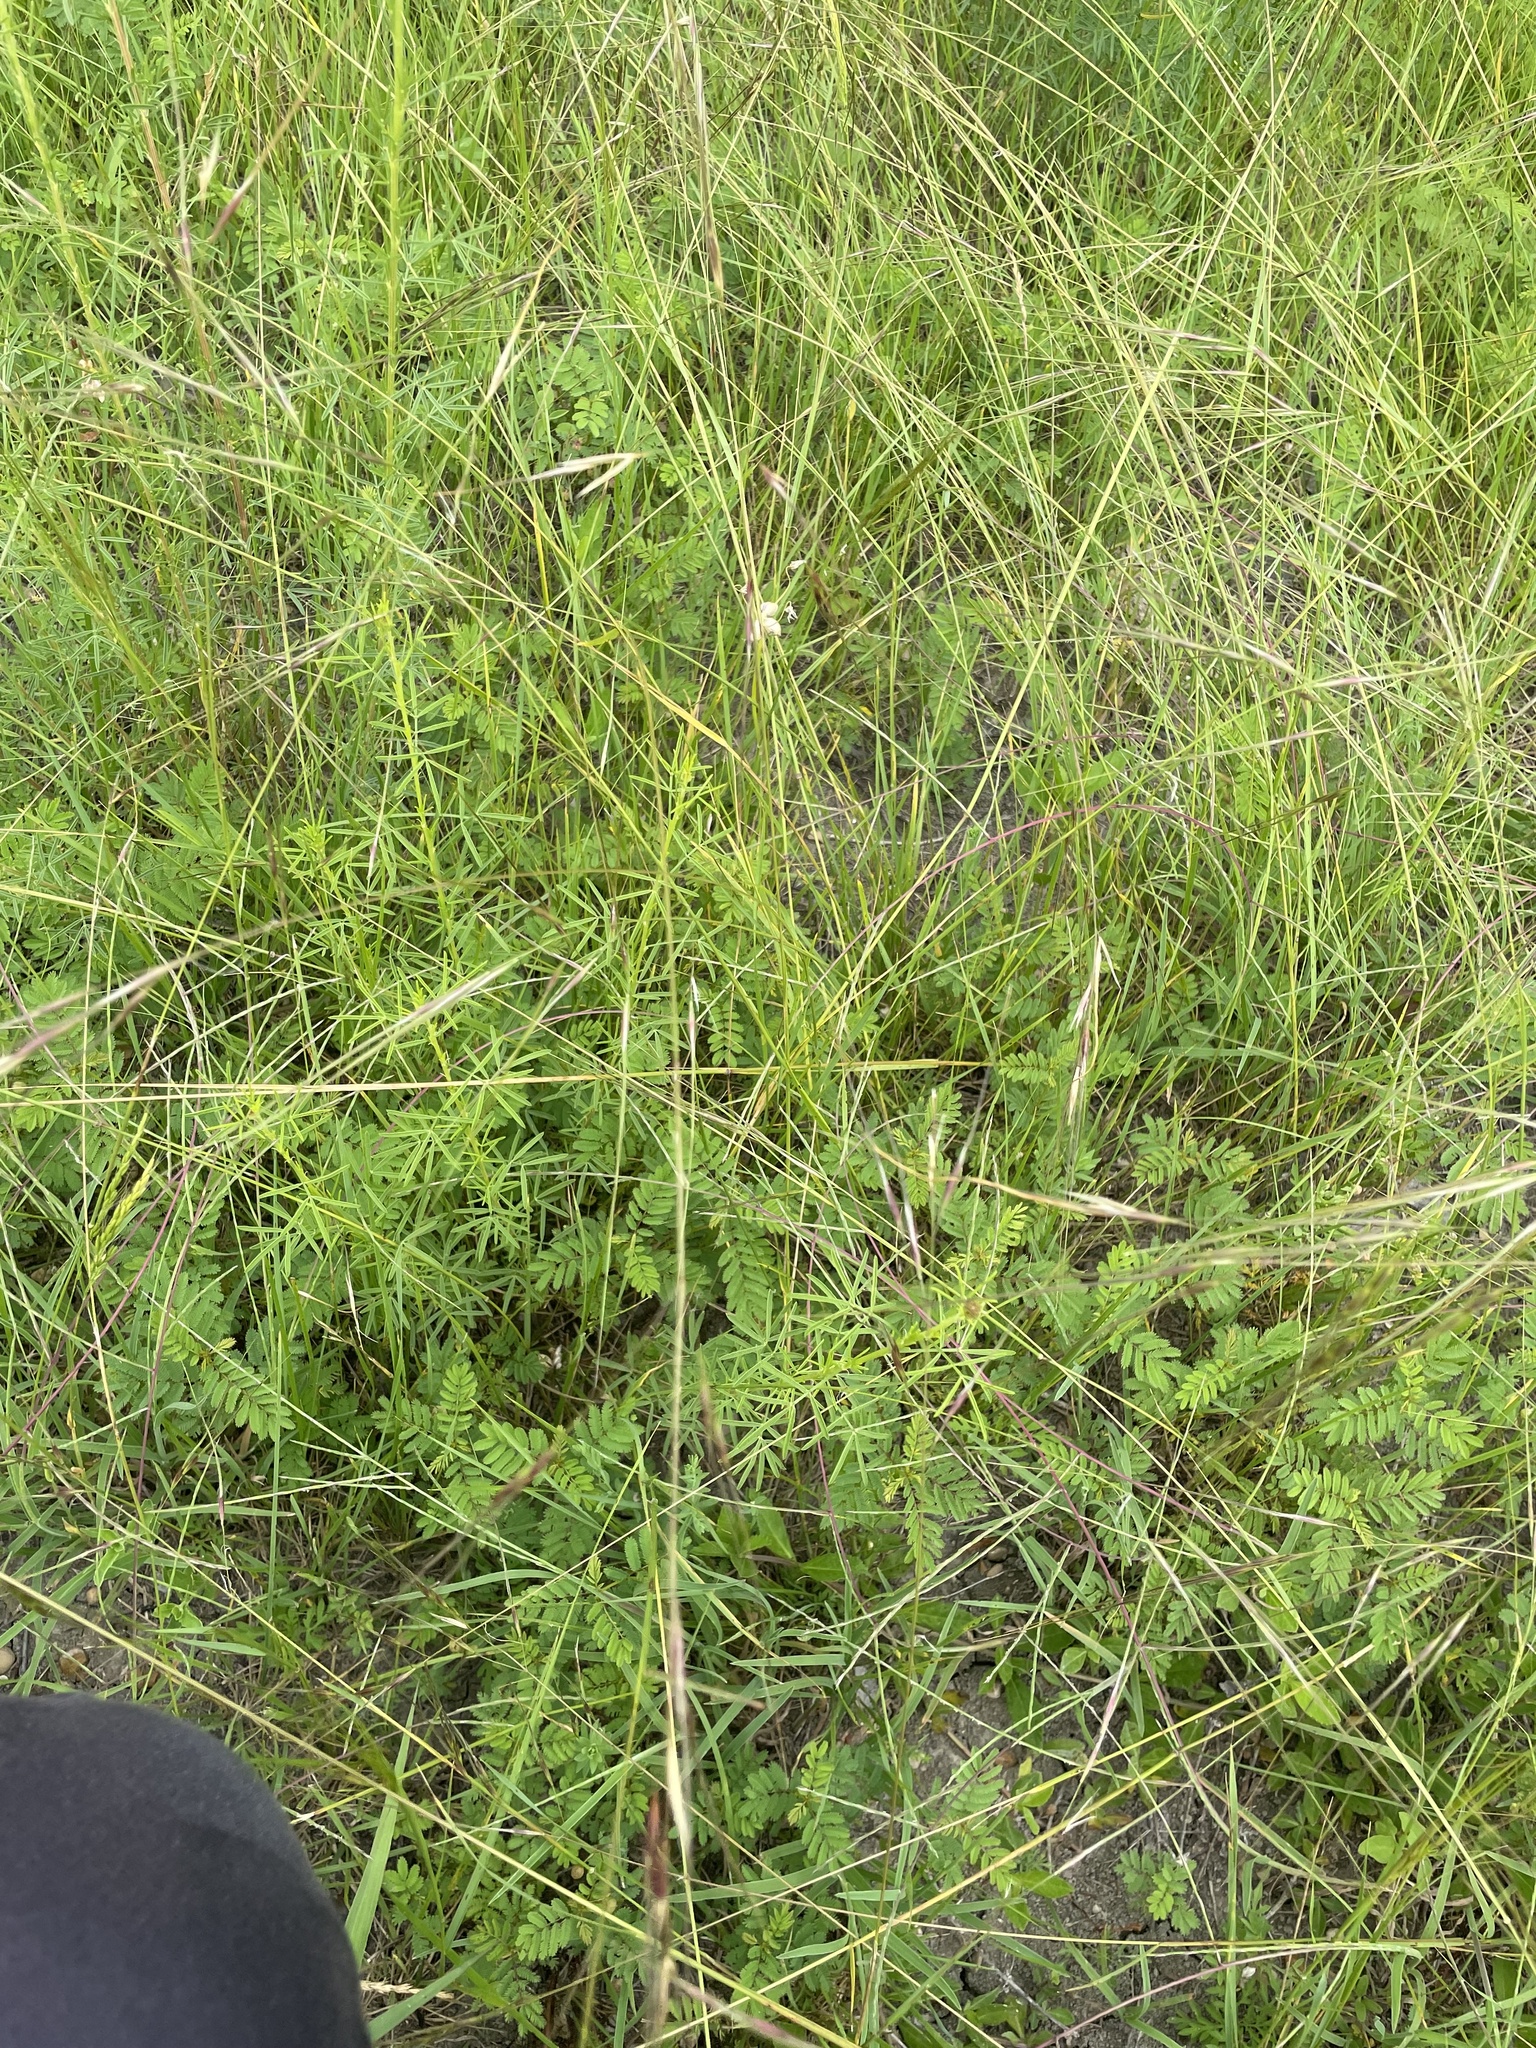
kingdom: Plantae
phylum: Tracheophyta
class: Liliopsida
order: Poales
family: Poaceae
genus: Nassella
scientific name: Nassella leucotricha
